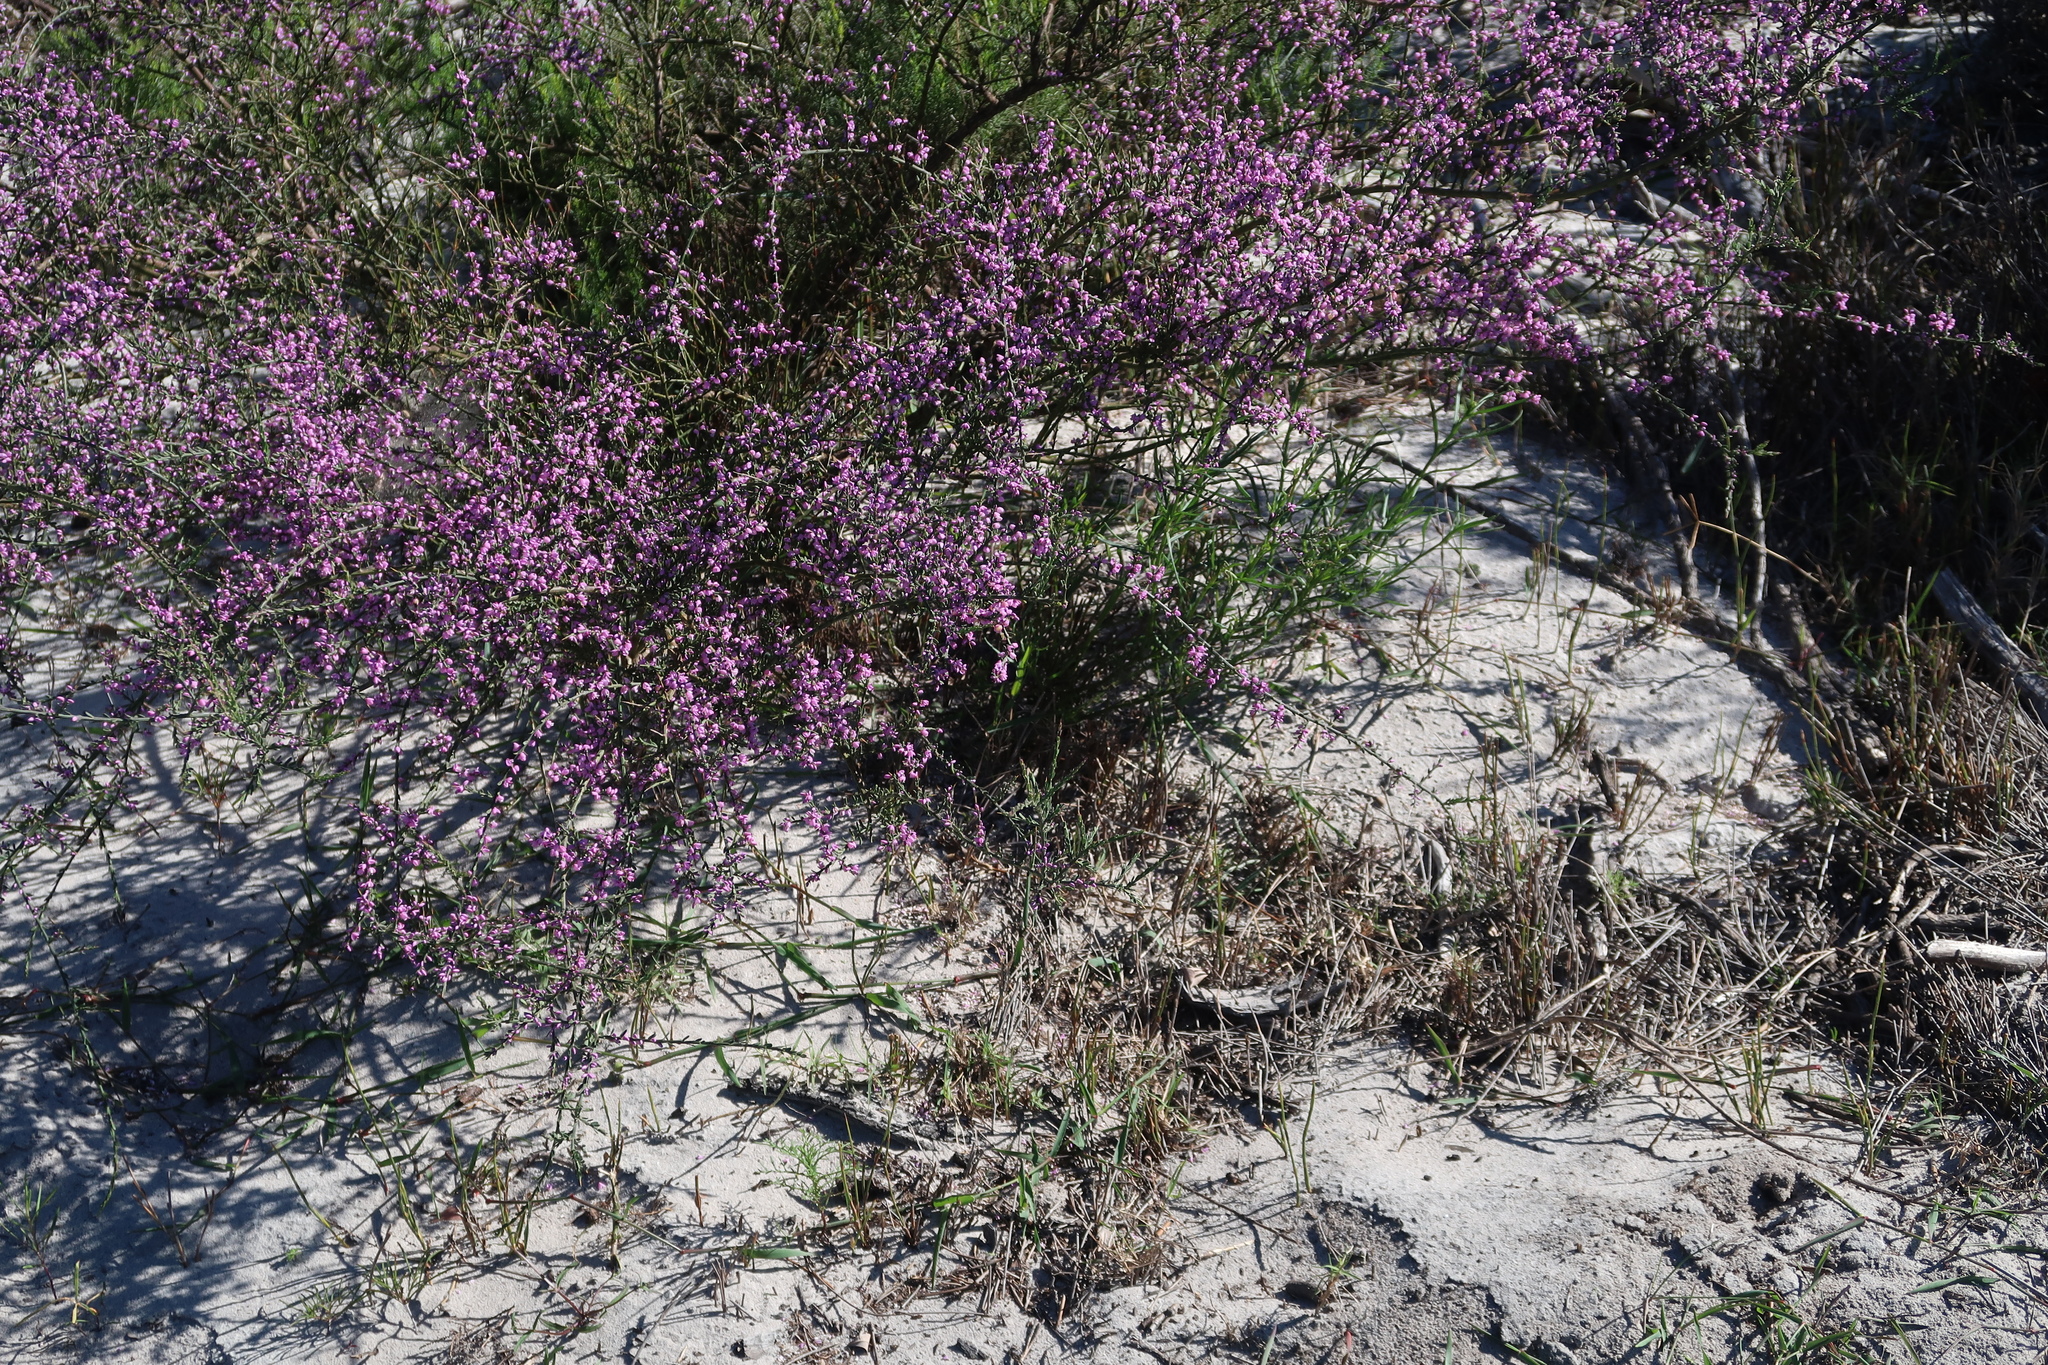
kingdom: Plantae
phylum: Tracheophyta
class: Magnoliopsida
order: Fabales
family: Polygalaceae
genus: Muraltia
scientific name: Muraltia spinosa
